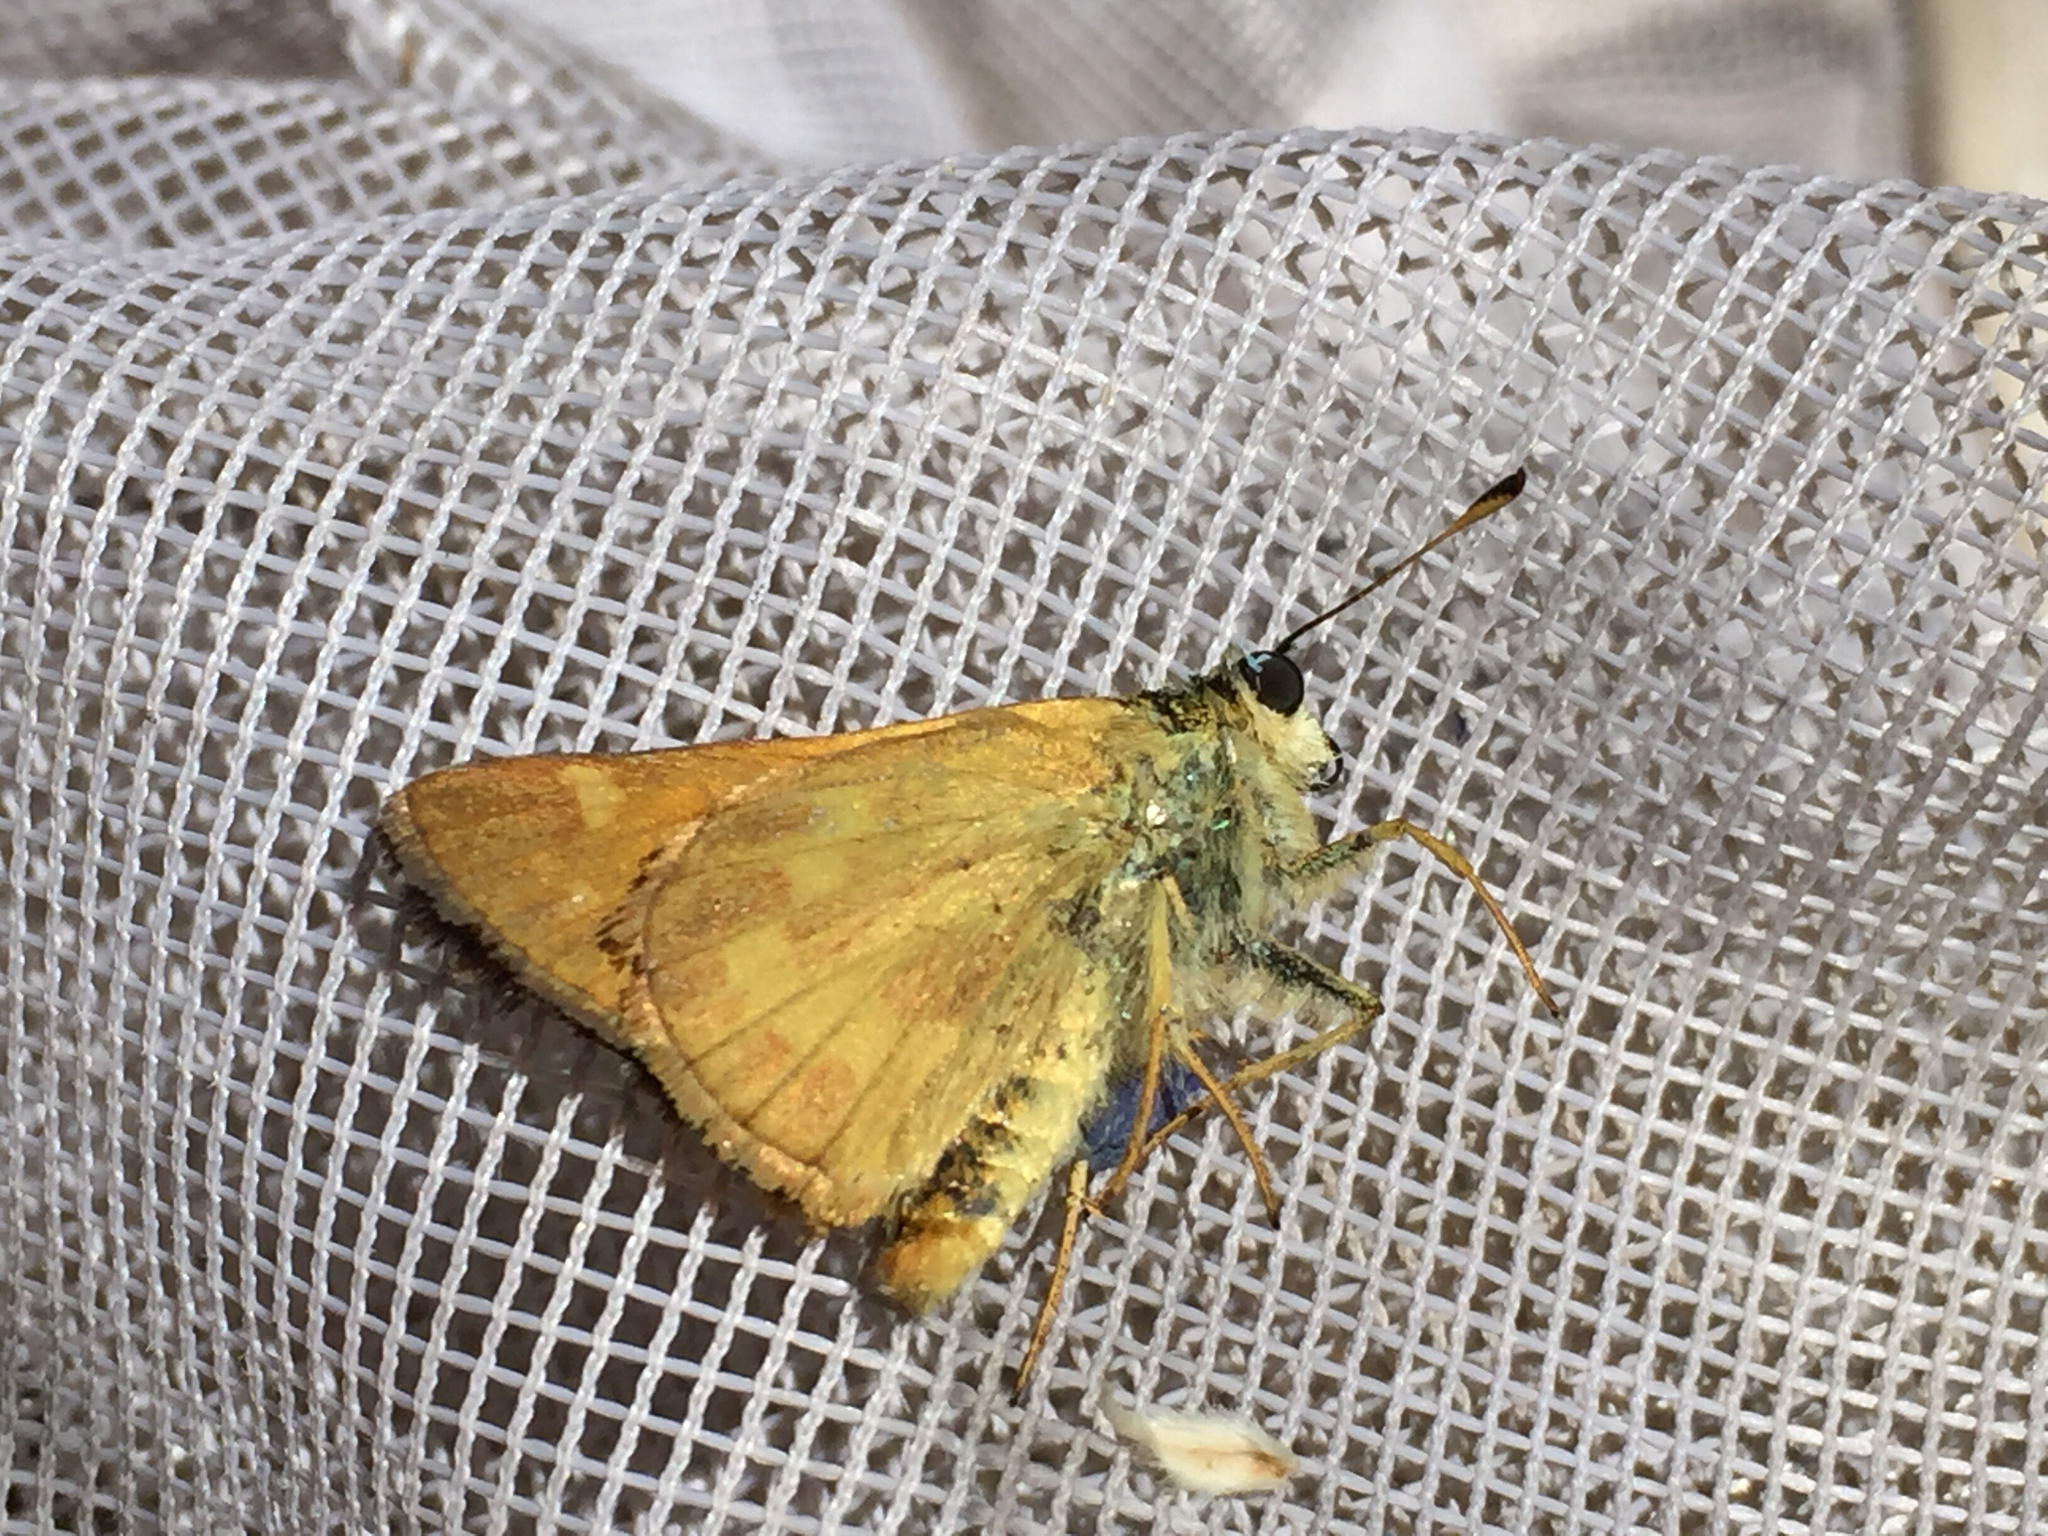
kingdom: Animalia
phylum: Arthropoda
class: Insecta
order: Lepidoptera
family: Hesperiidae
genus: Ochlodes
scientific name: Ochlodes sylvanoides
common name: Woodland skipper
